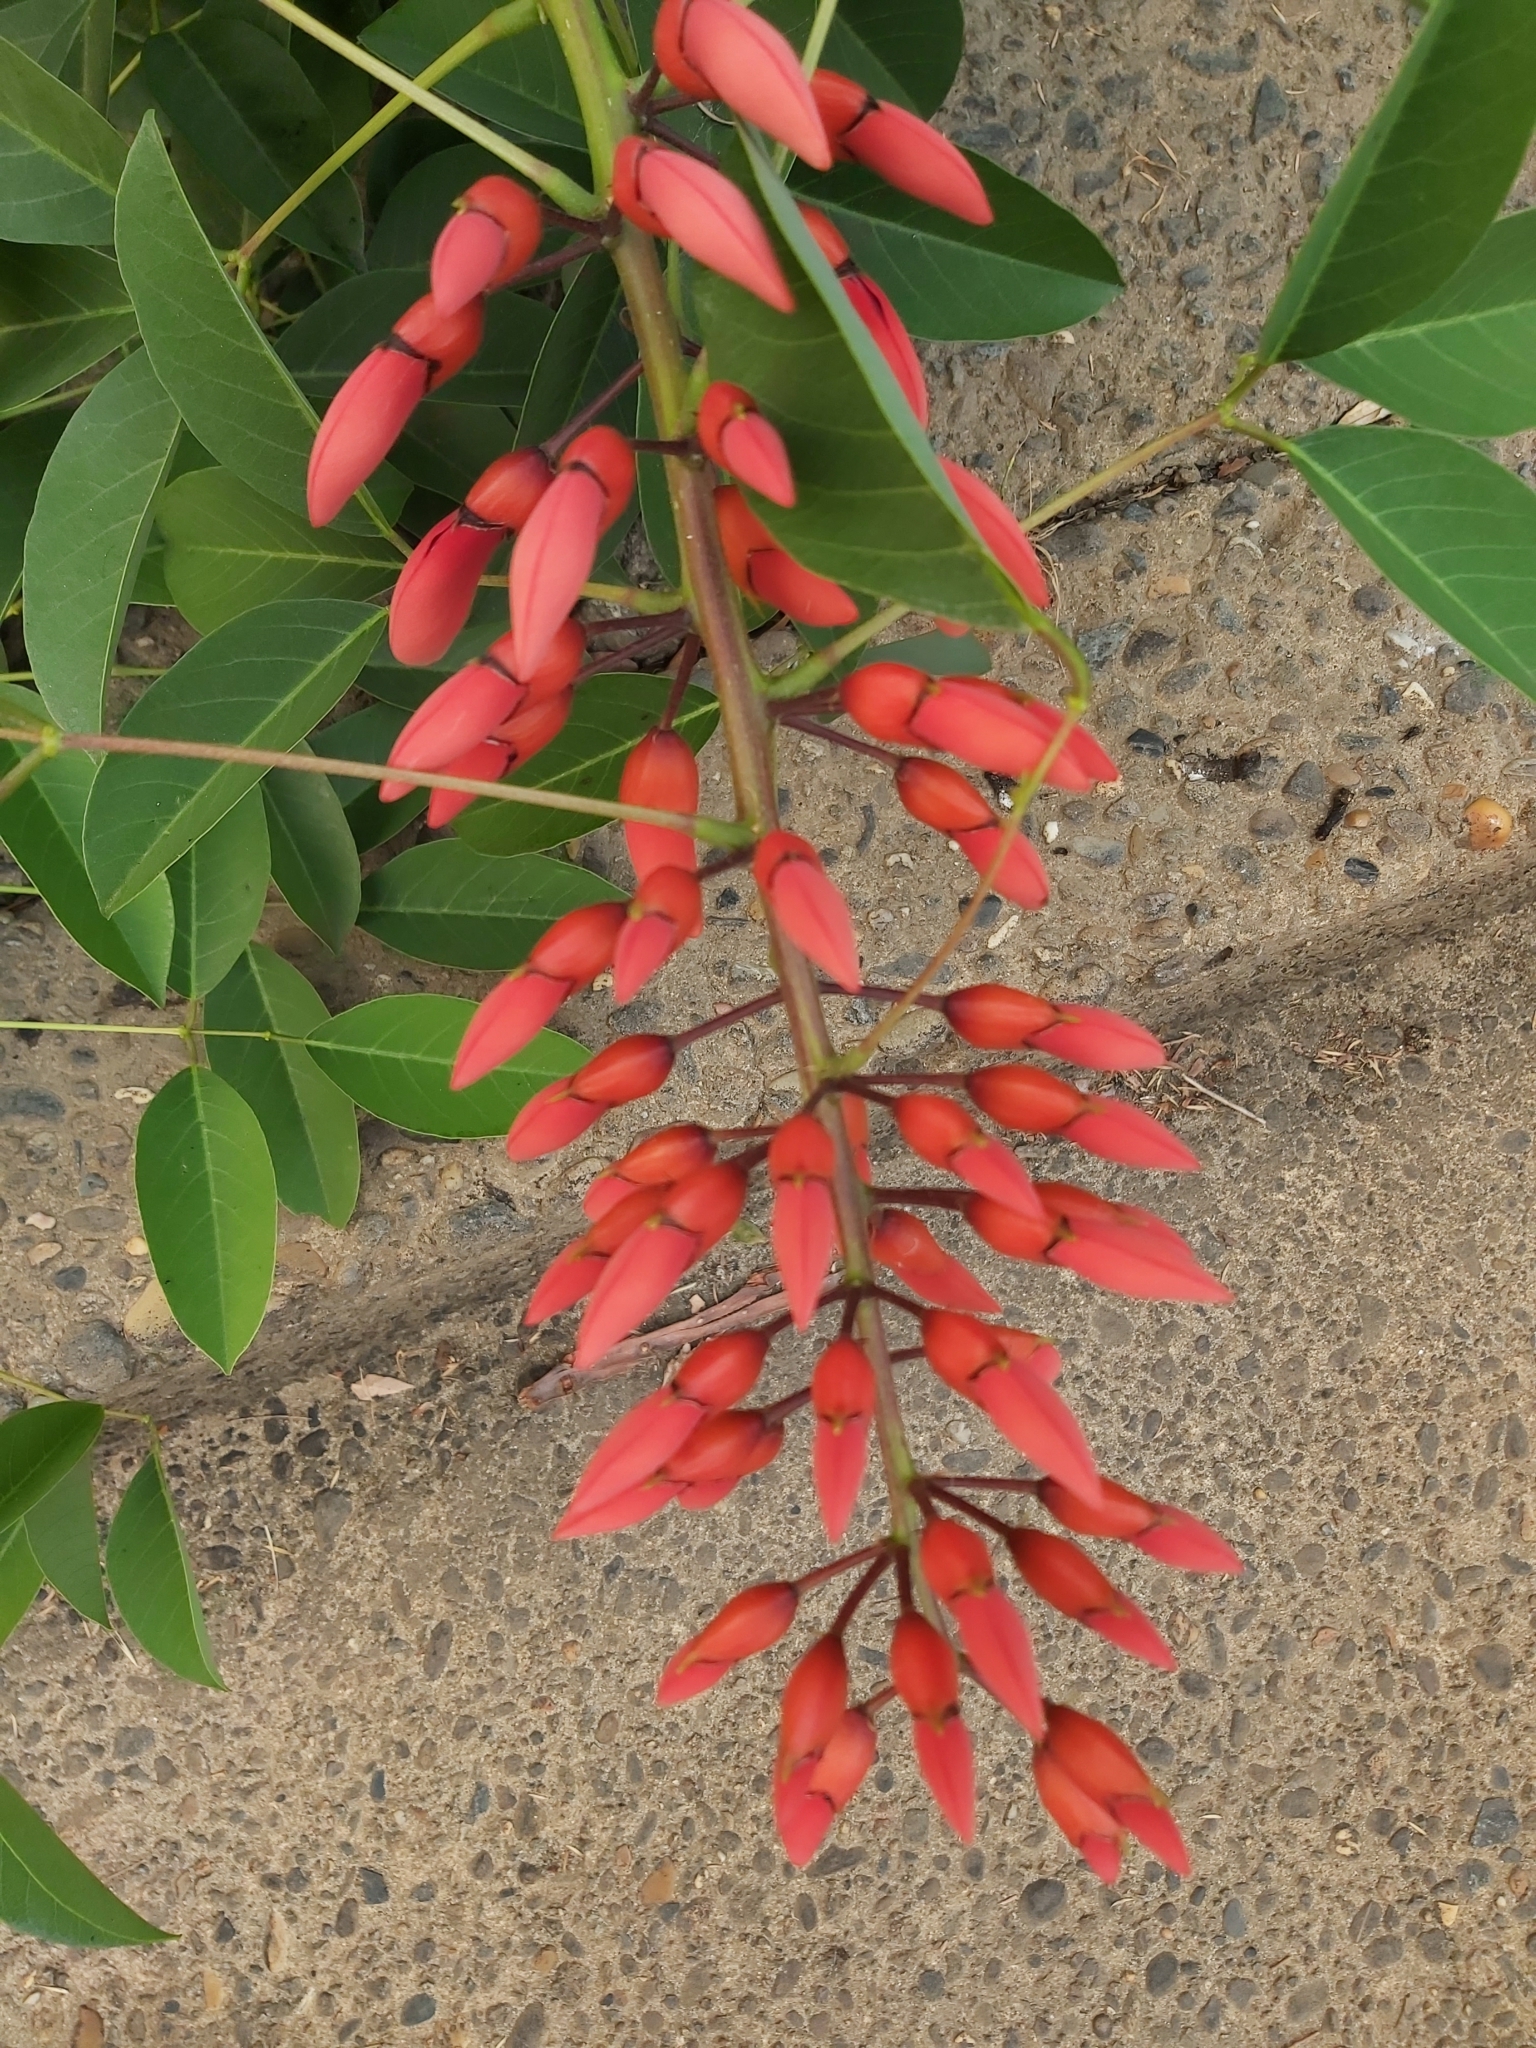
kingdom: Plantae
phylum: Tracheophyta
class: Magnoliopsida
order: Fabales
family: Fabaceae
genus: Erythrina
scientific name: Erythrina crista-galli
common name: Cockspur coral tree
